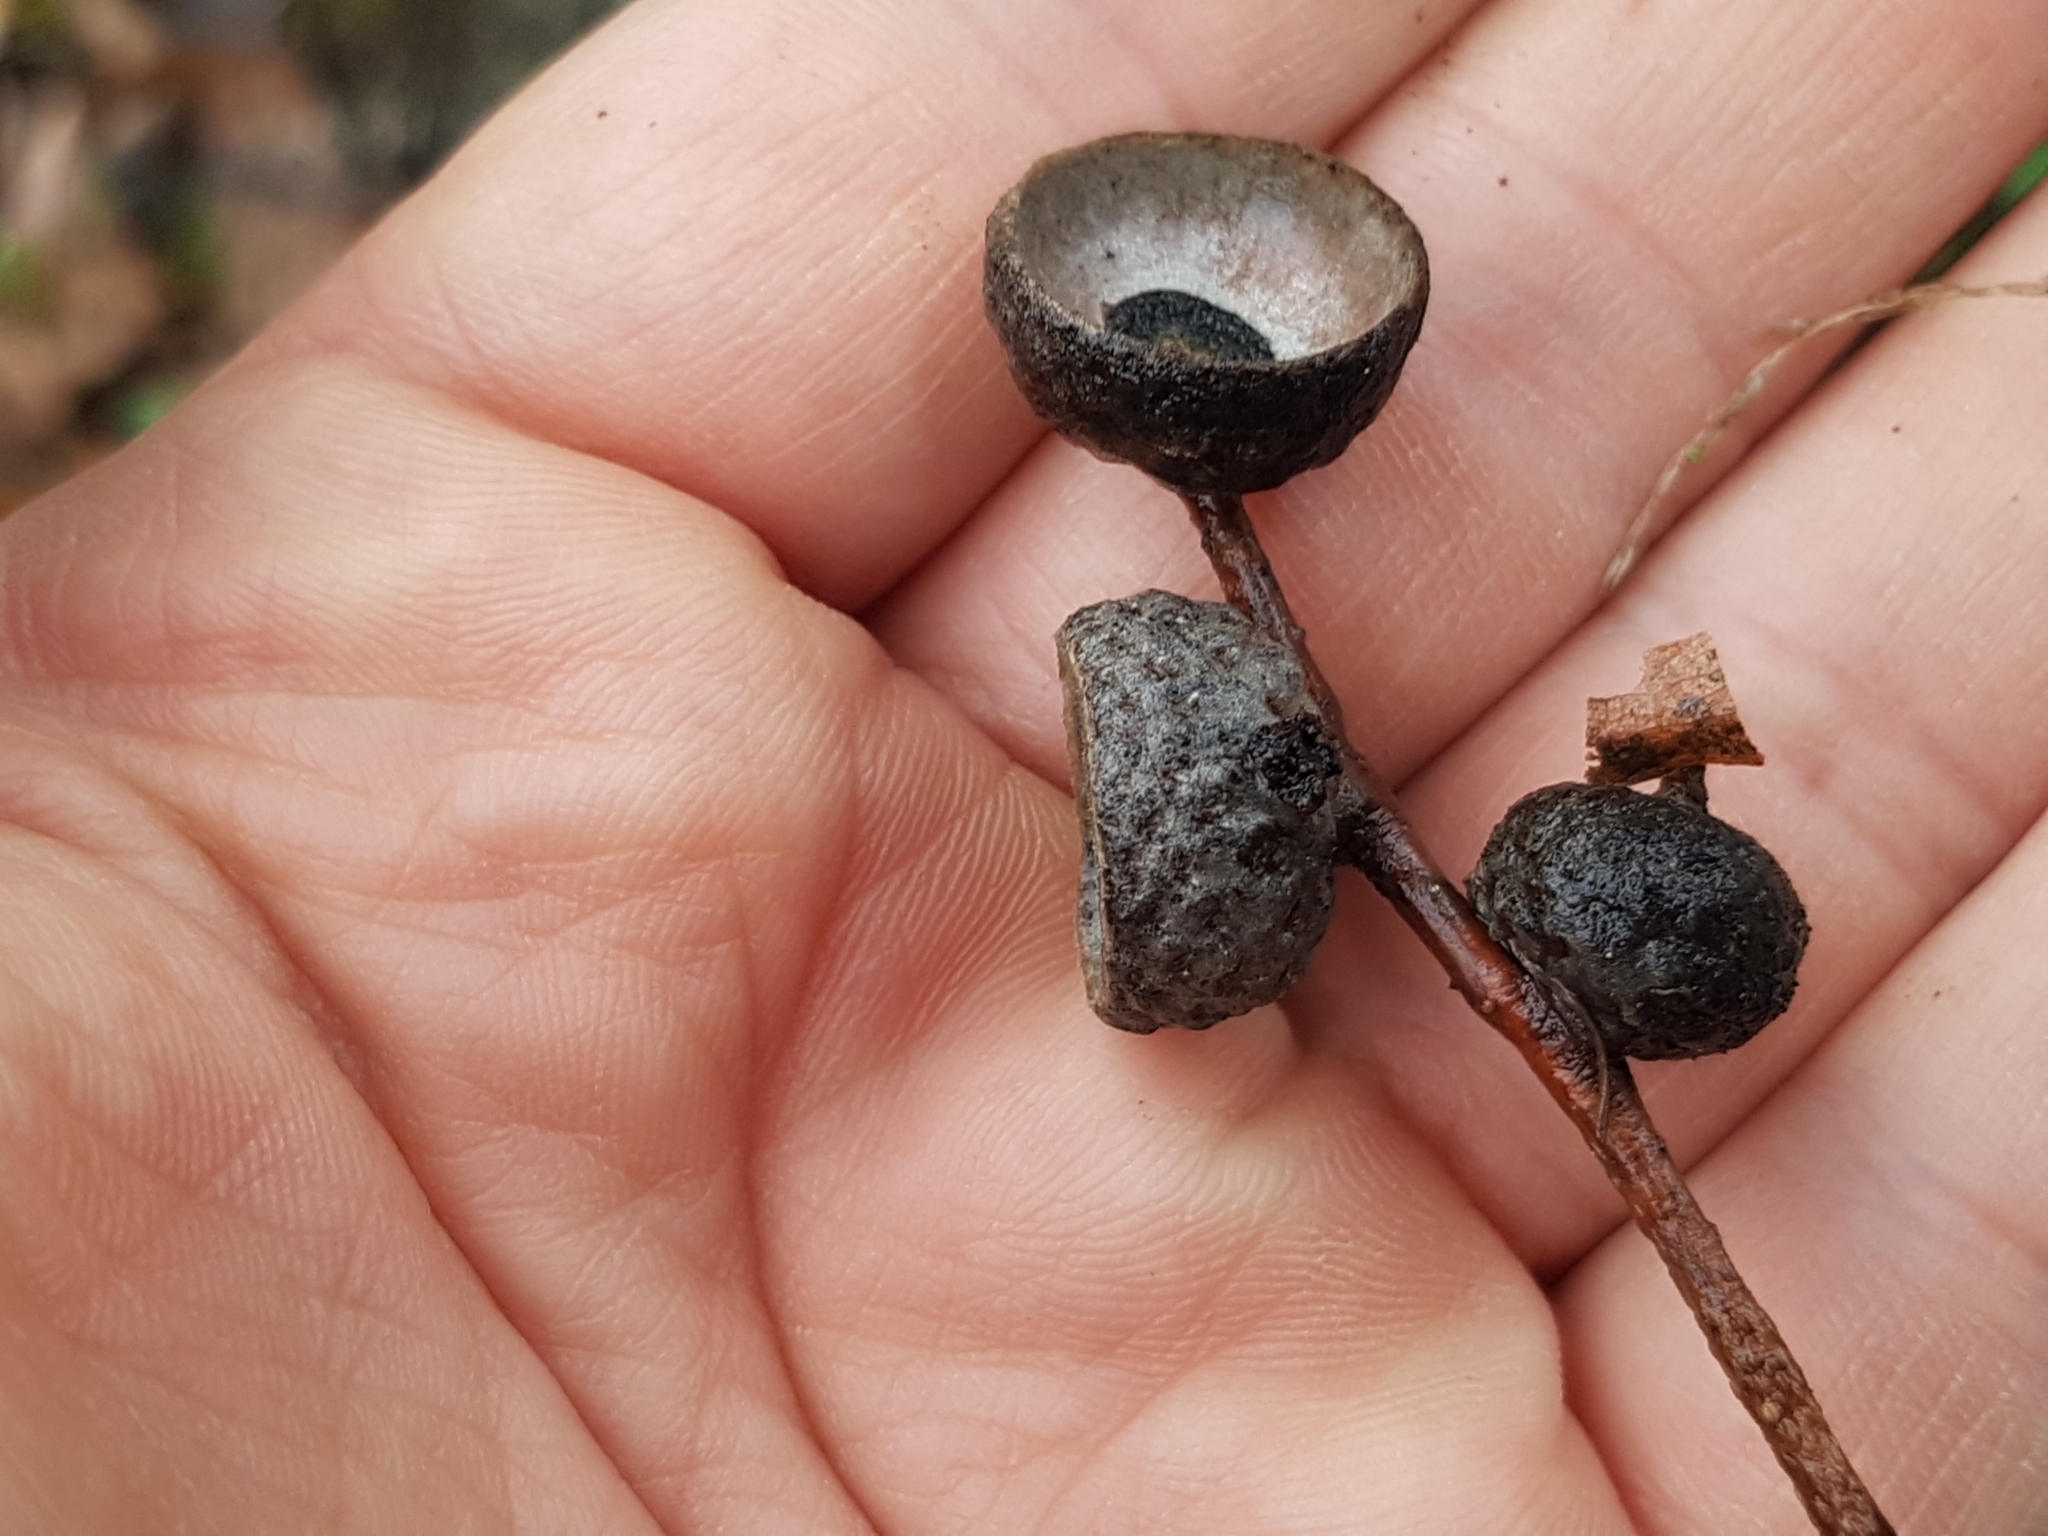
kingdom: Plantae
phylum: Tracheophyta
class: Magnoliopsida
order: Fagales
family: Fagaceae
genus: Quercus
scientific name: Quercus robur
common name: Pedunculate oak
